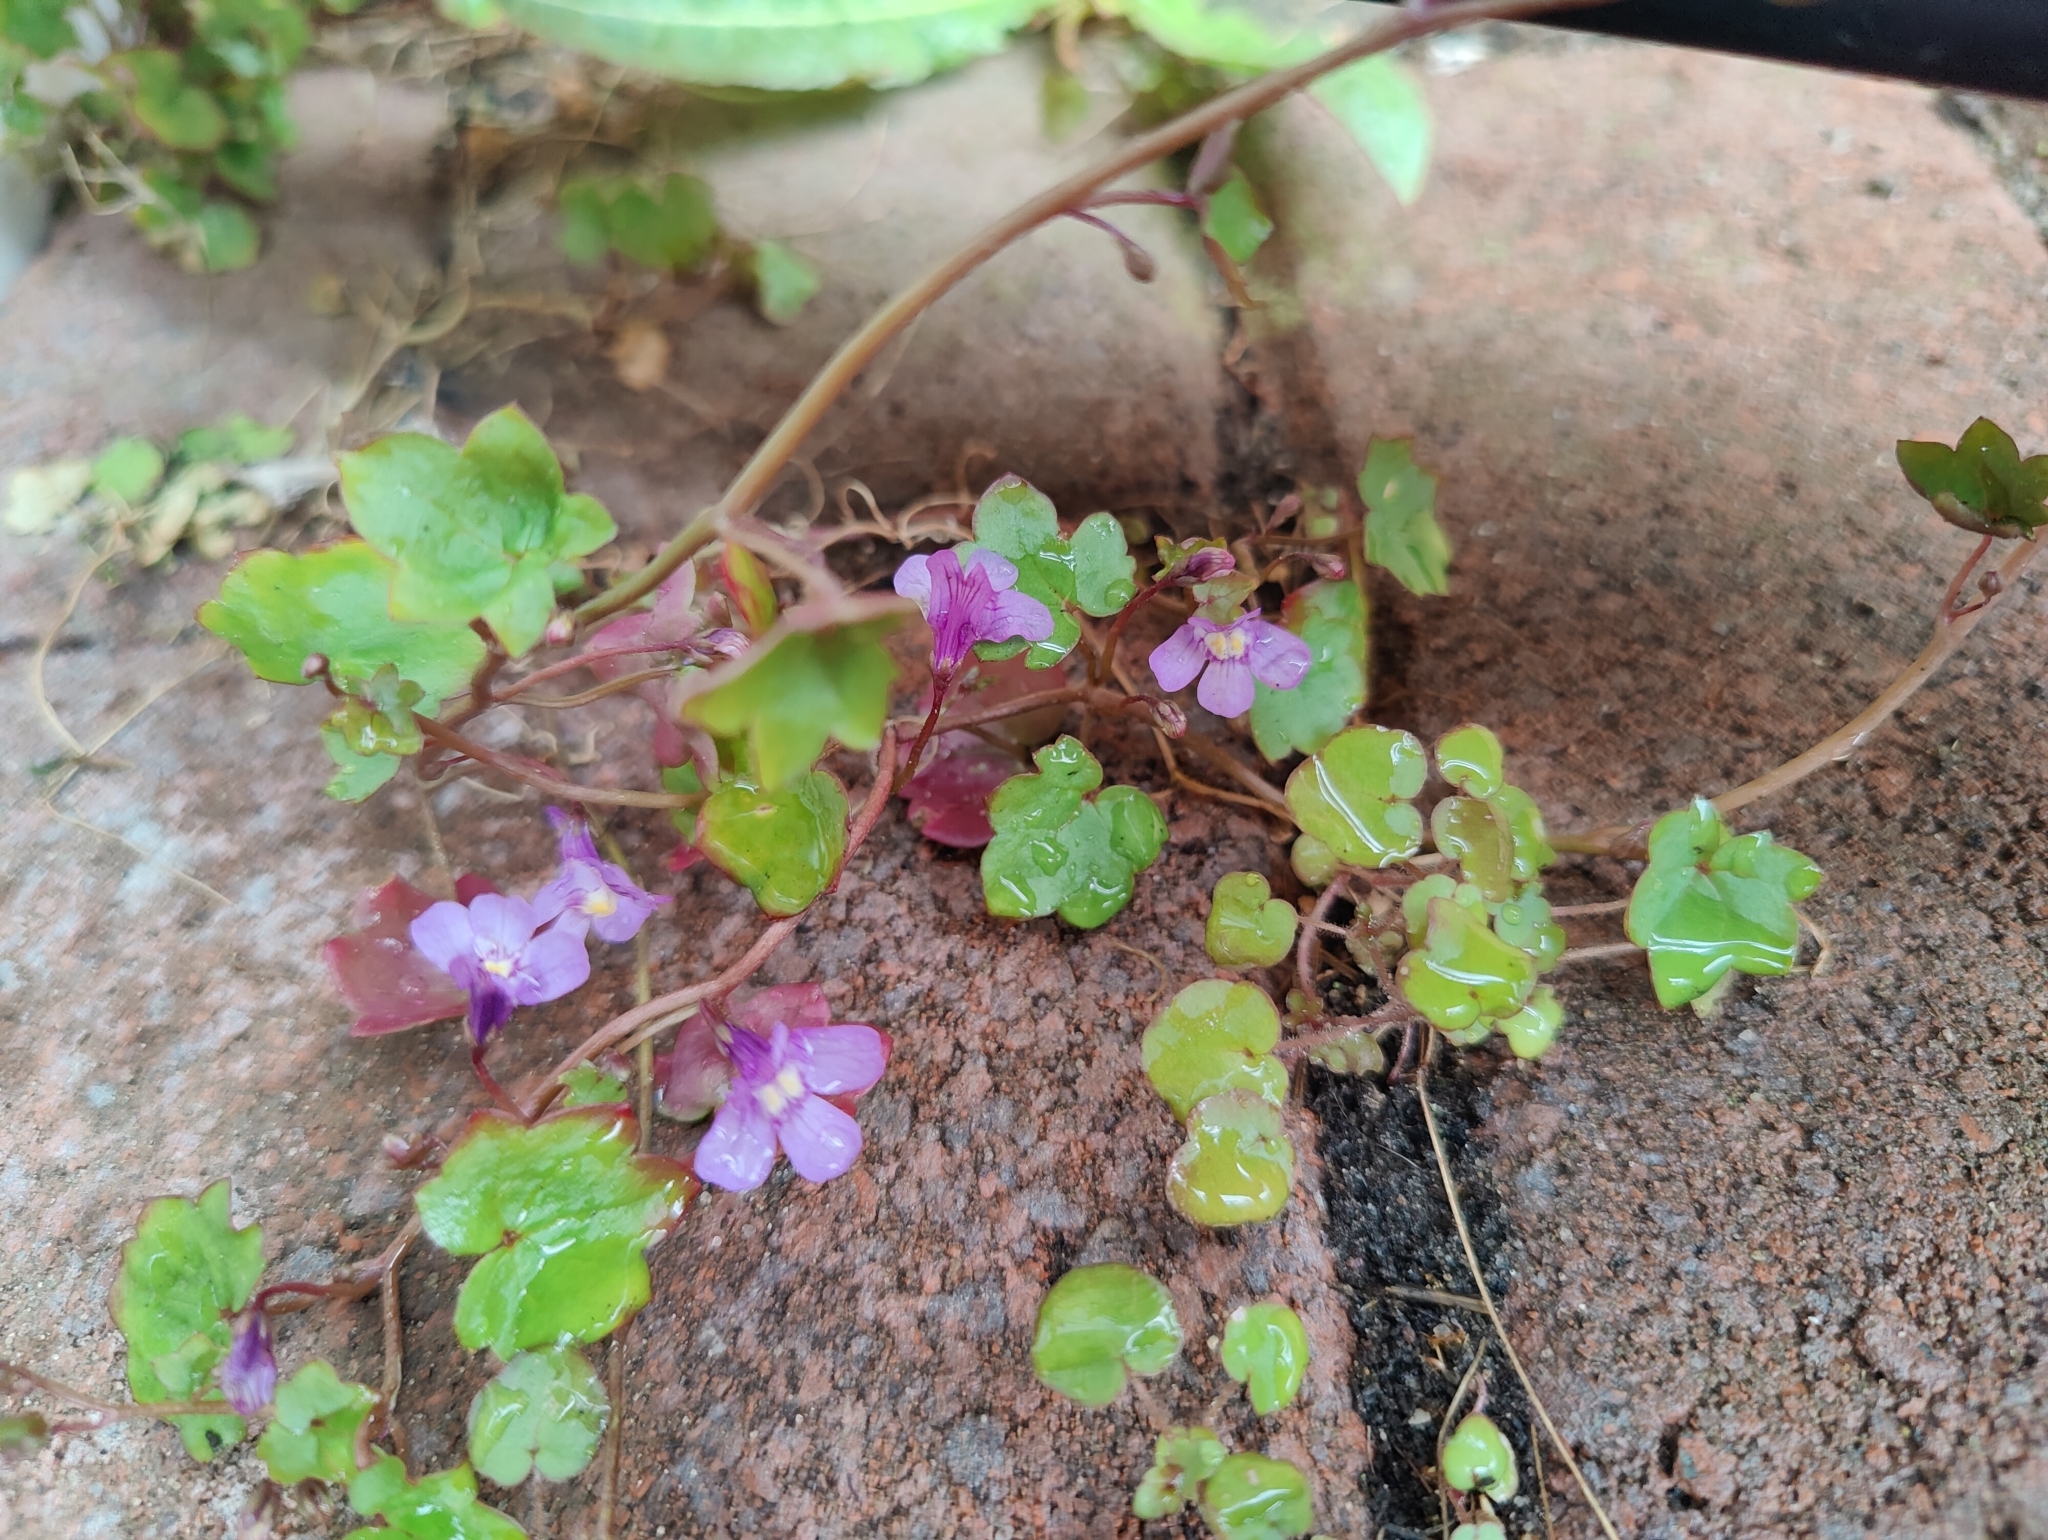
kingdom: Plantae
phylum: Tracheophyta
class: Magnoliopsida
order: Lamiales
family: Plantaginaceae
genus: Cymbalaria
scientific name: Cymbalaria muralis
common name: Ivy-leaved toadflax
